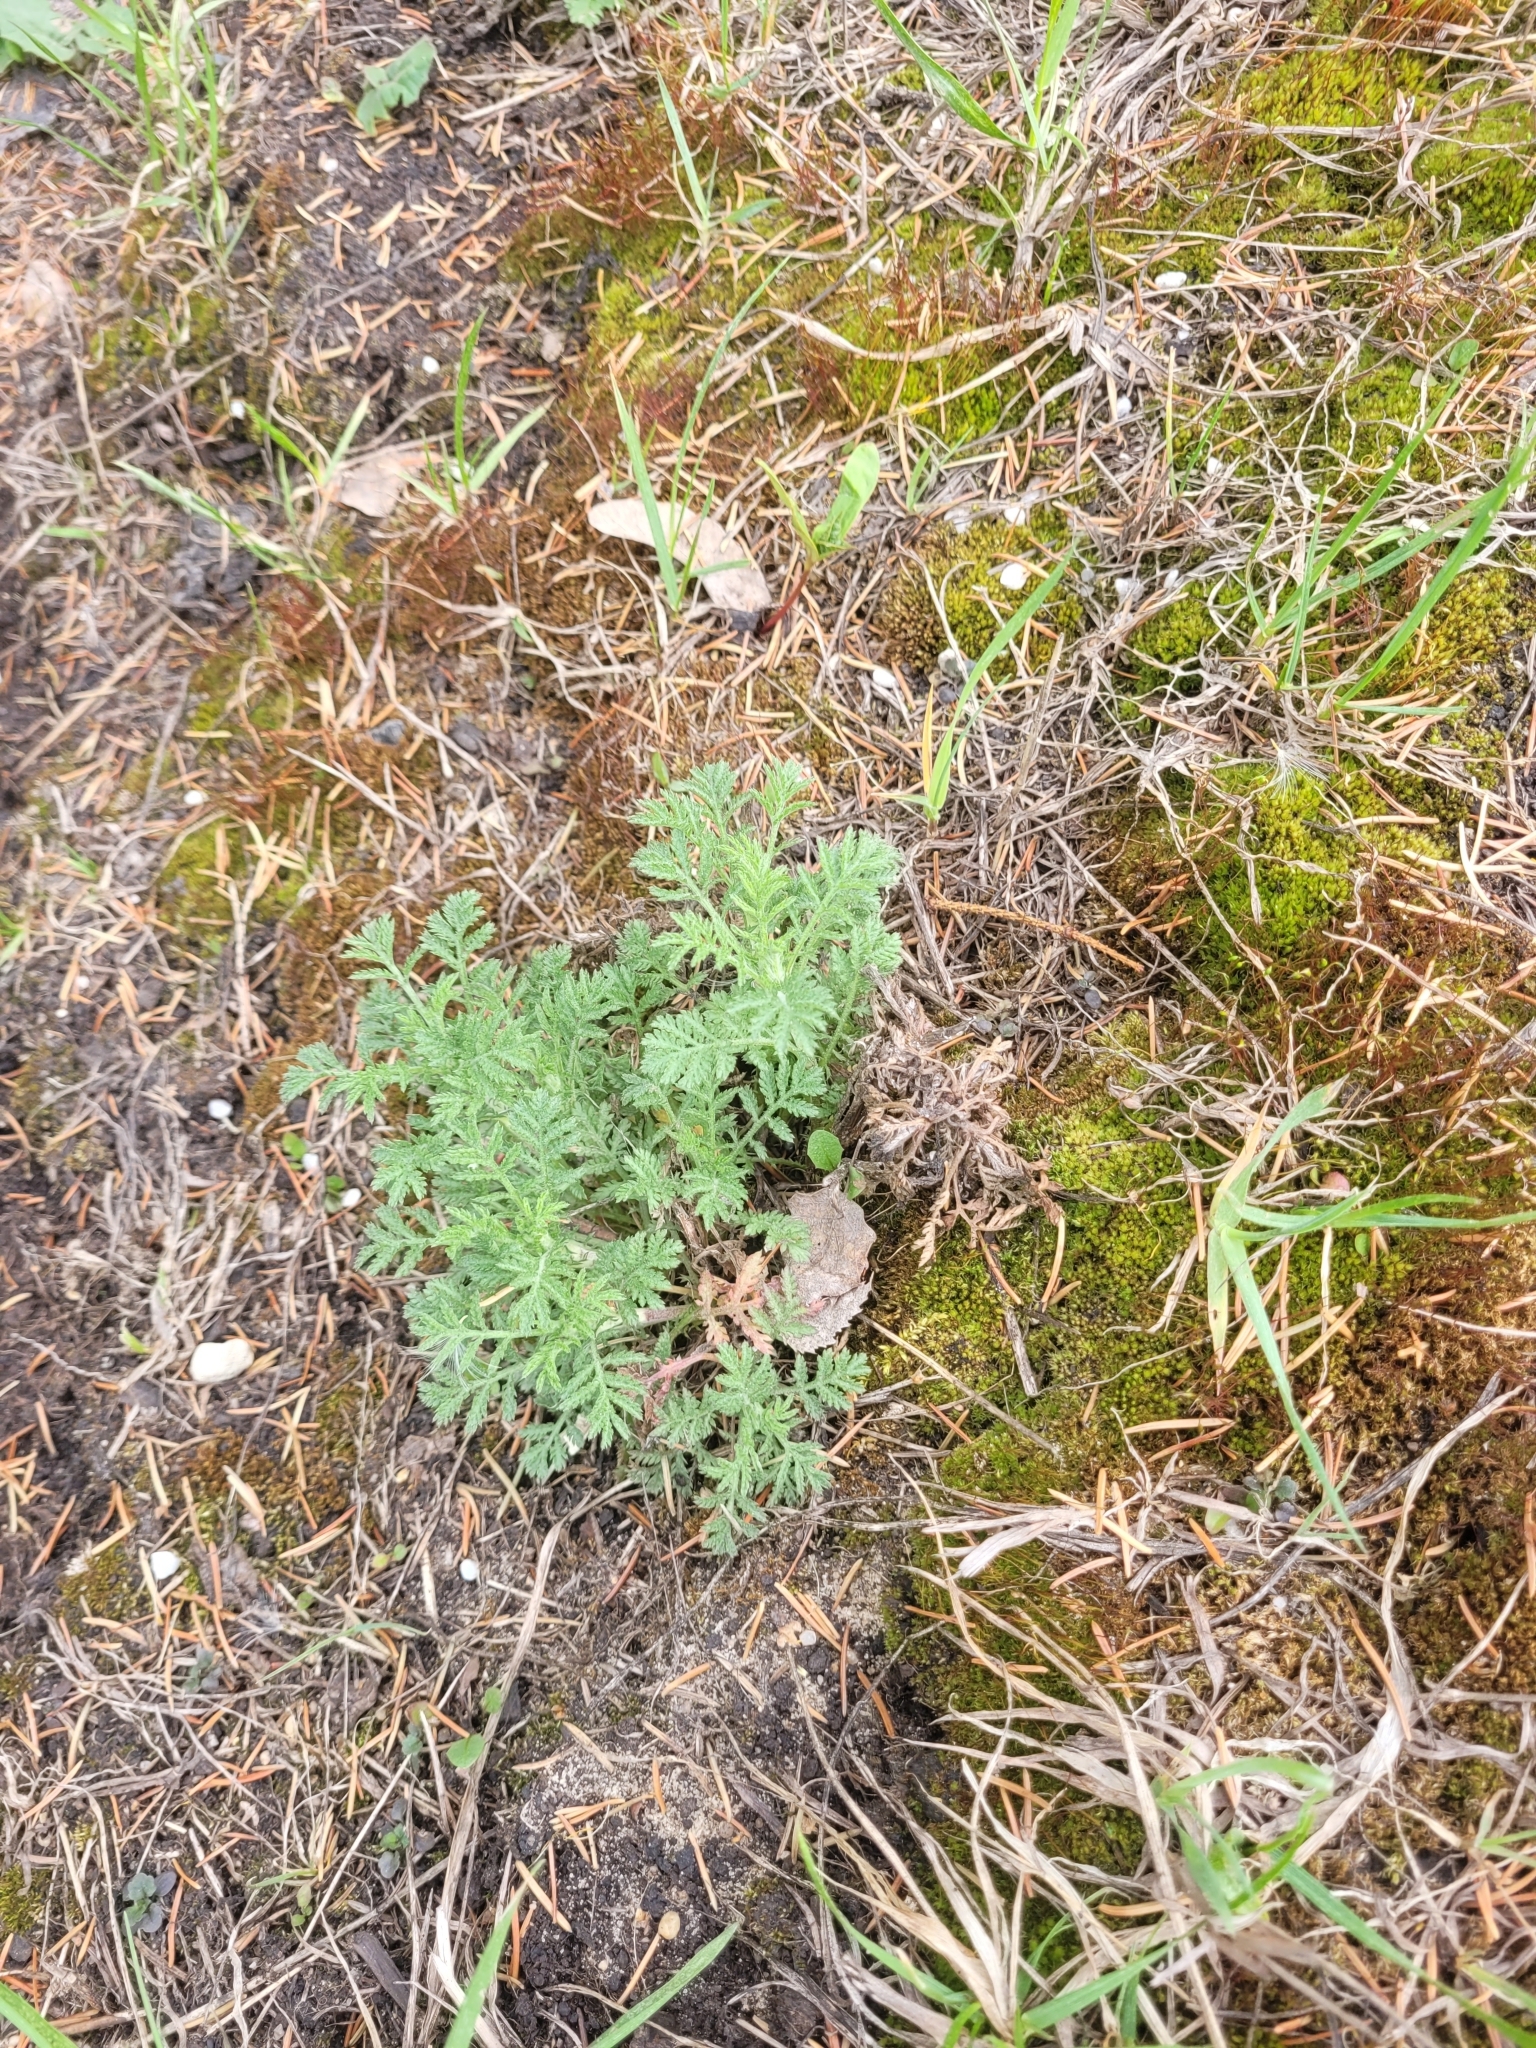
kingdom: Plantae
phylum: Tracheophyta
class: Magnoliopsida
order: Asterales
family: Asteraceae
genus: Cota
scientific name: Cota tinctoria
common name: Golden chamomile
